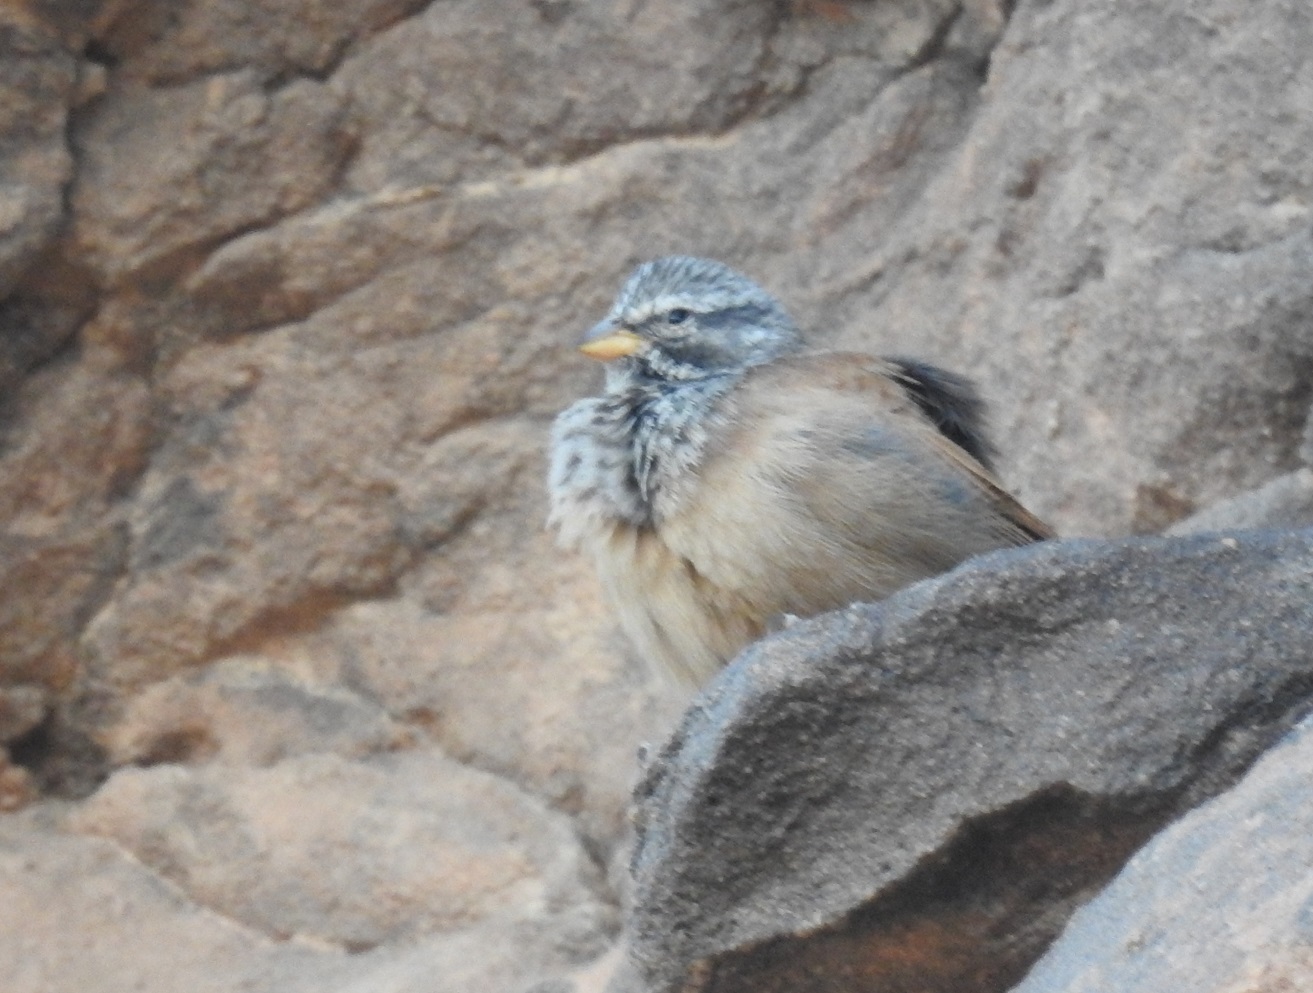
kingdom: Animalia
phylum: Chordata
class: Aves
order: Passeriformes
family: Emberizidae
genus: Emberiza
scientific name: Emberiza sahari
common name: House bunting
